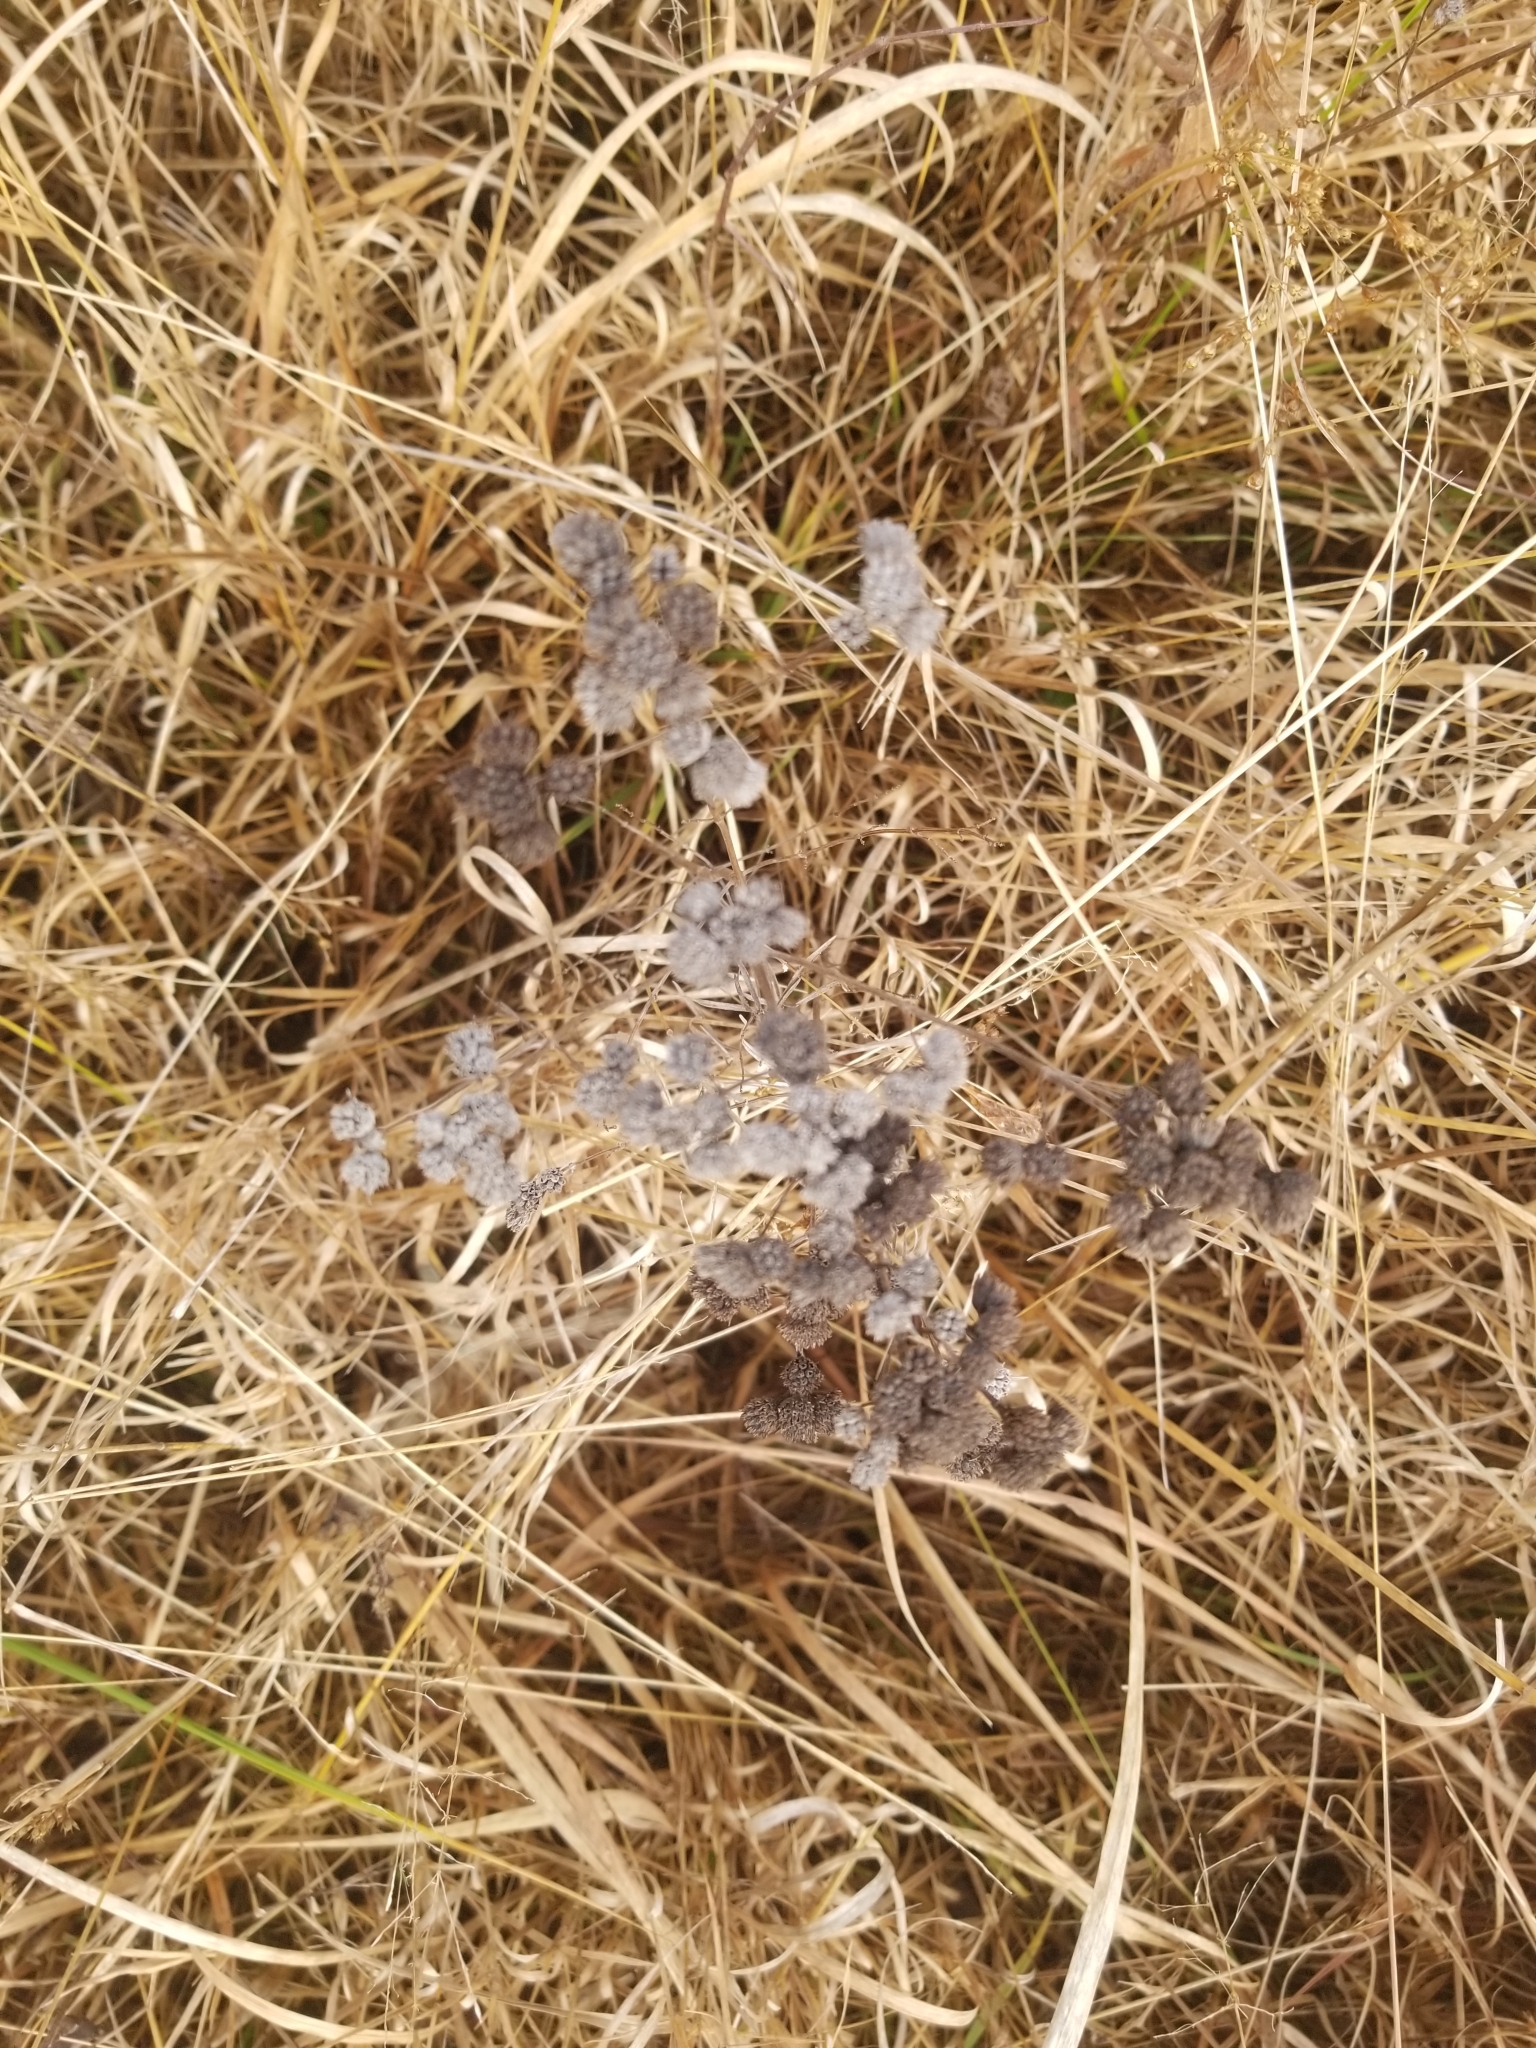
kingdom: Plantae
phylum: Tracheophyta
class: Magnoliopsida
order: Lamiales
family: Lamiaceae
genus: Pycnanthemum
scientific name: Pycnanthemum virginianum
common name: Virginia mountain-mint
